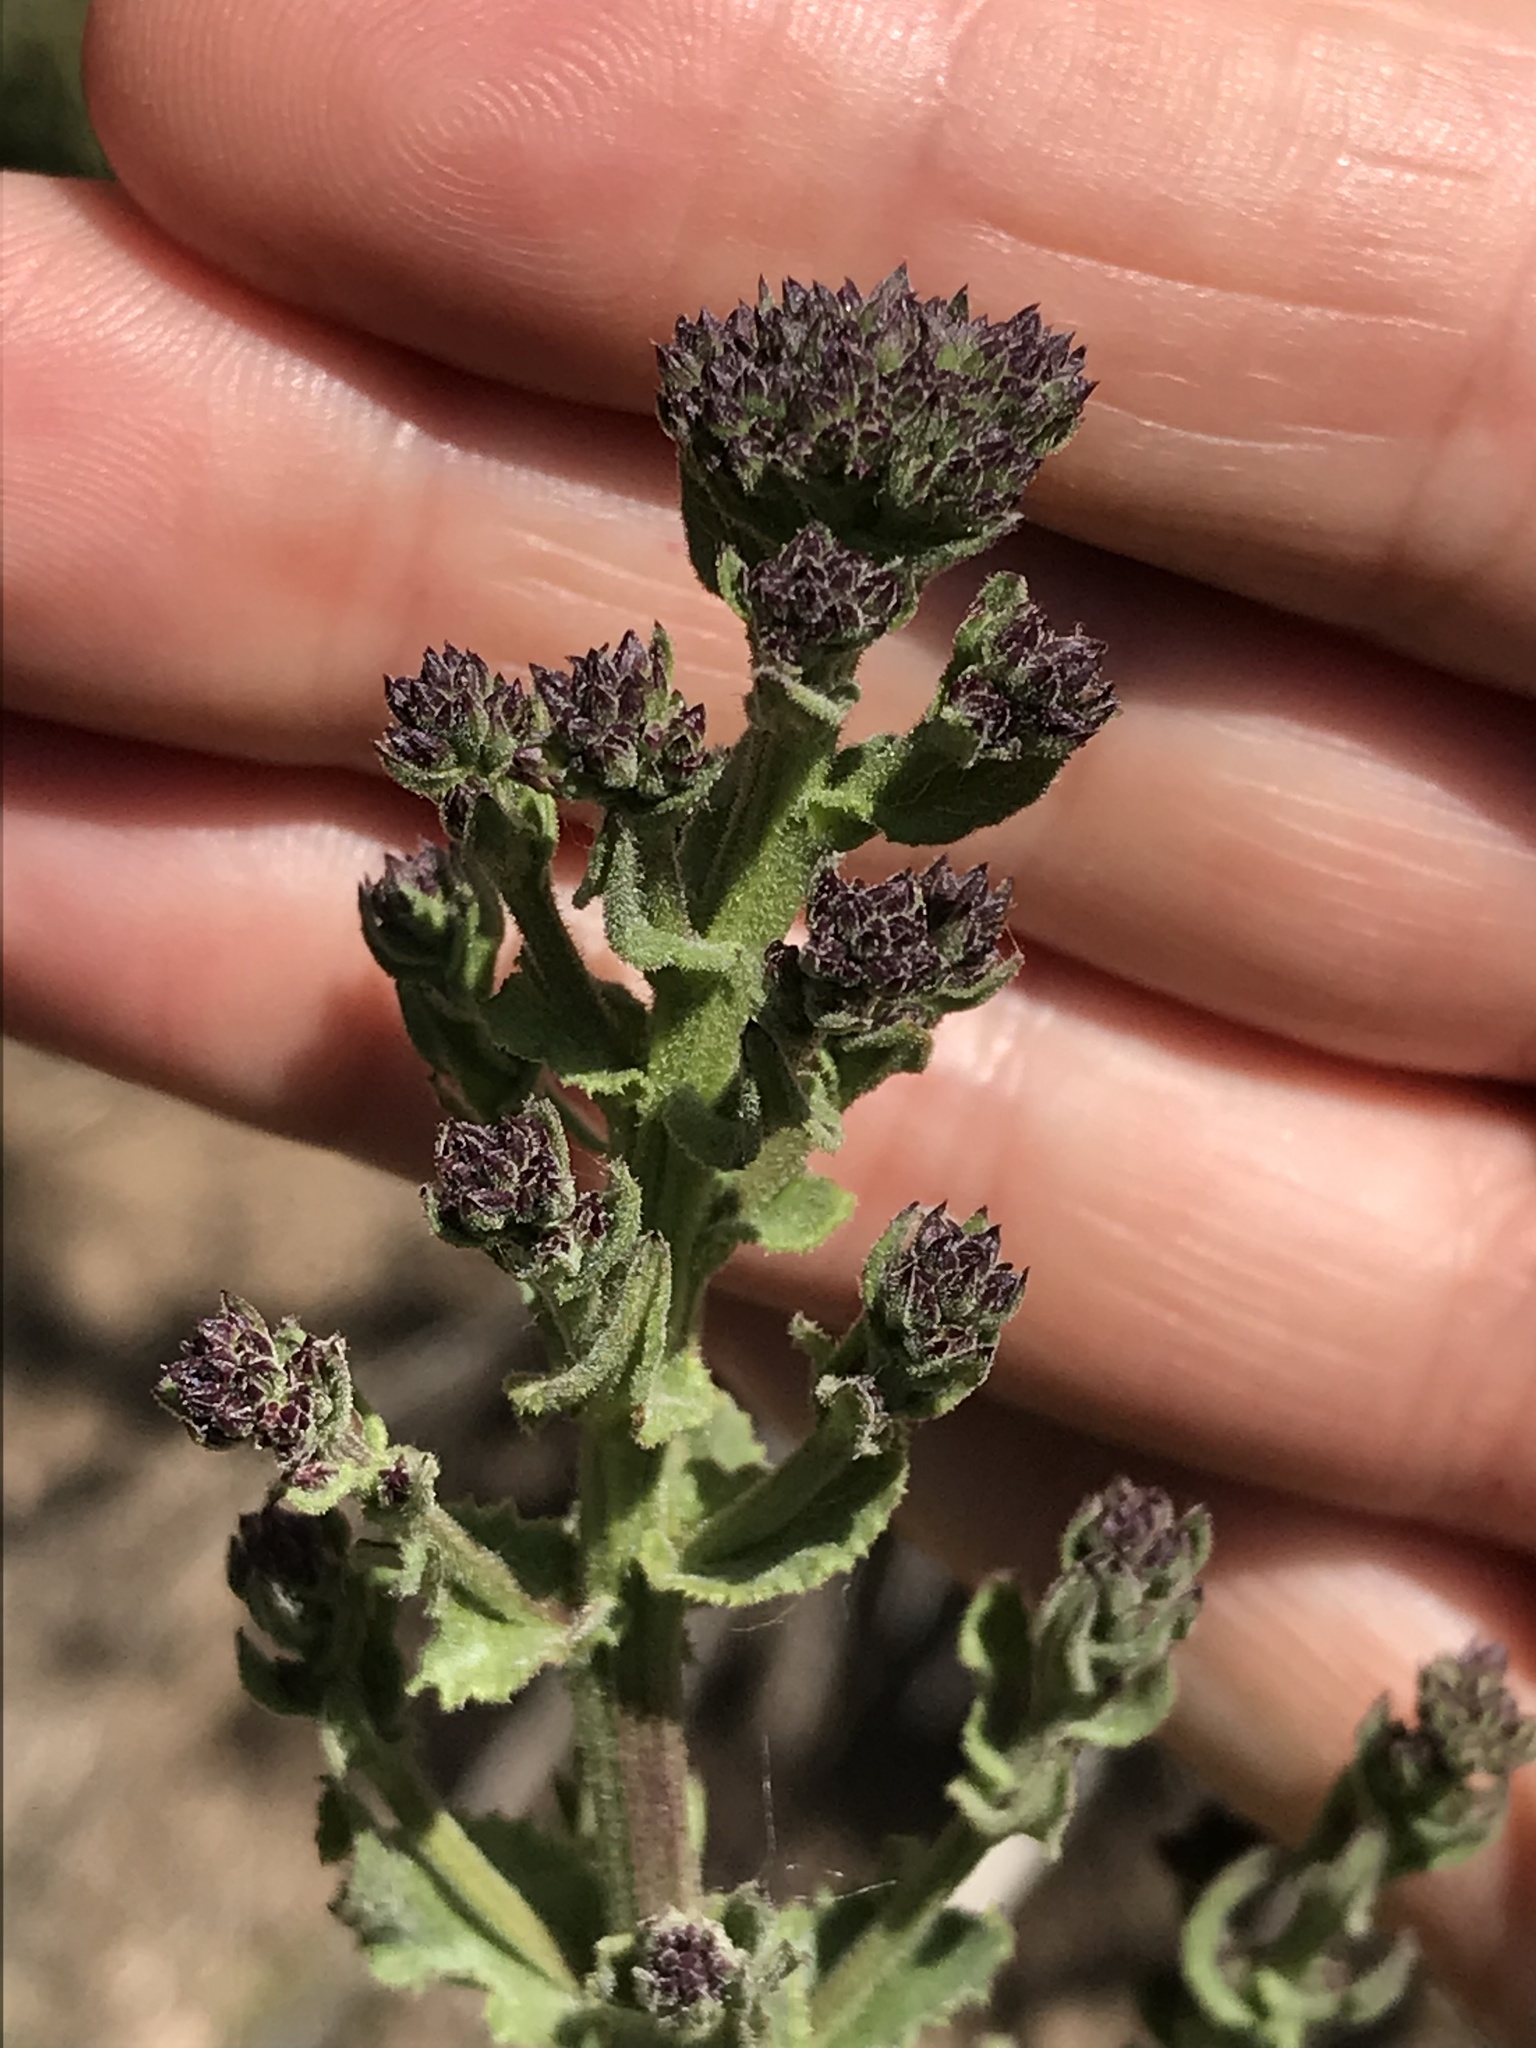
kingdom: Plantae
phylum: Tracheophyta
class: Magnoliopsida
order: Asterales
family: Asteraceae
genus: Acourtia
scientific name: Acourtia microcephala
